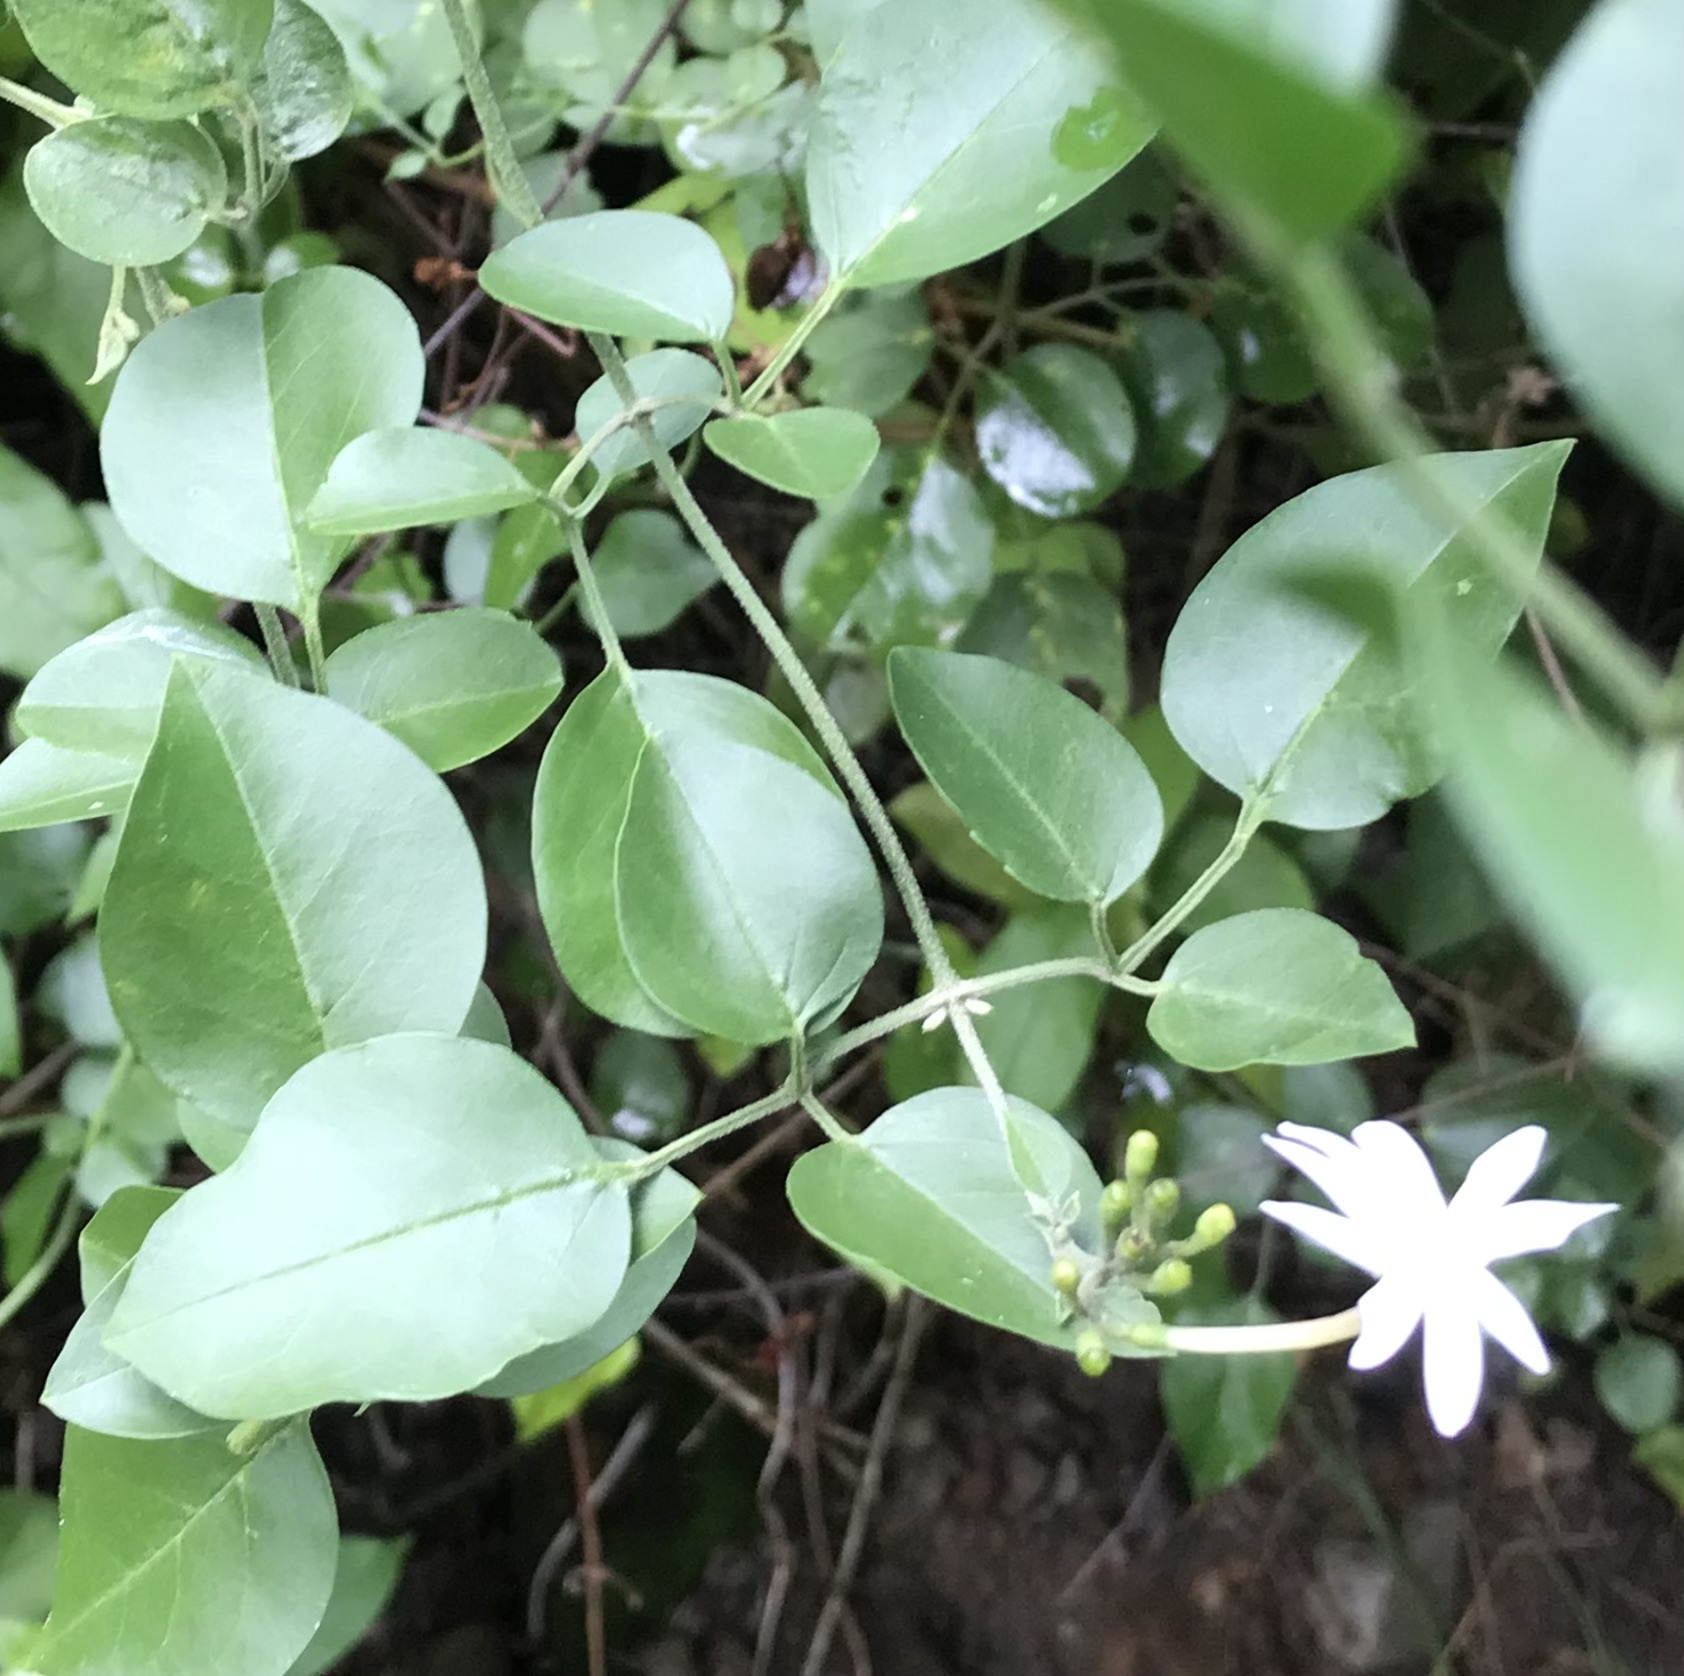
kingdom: Plantae
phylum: Tracheophyta
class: Magnoliopsida
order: Lamiales
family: Oleaceae
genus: Jasminum
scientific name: Jasminum fluminense
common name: Brazilian jasmine
